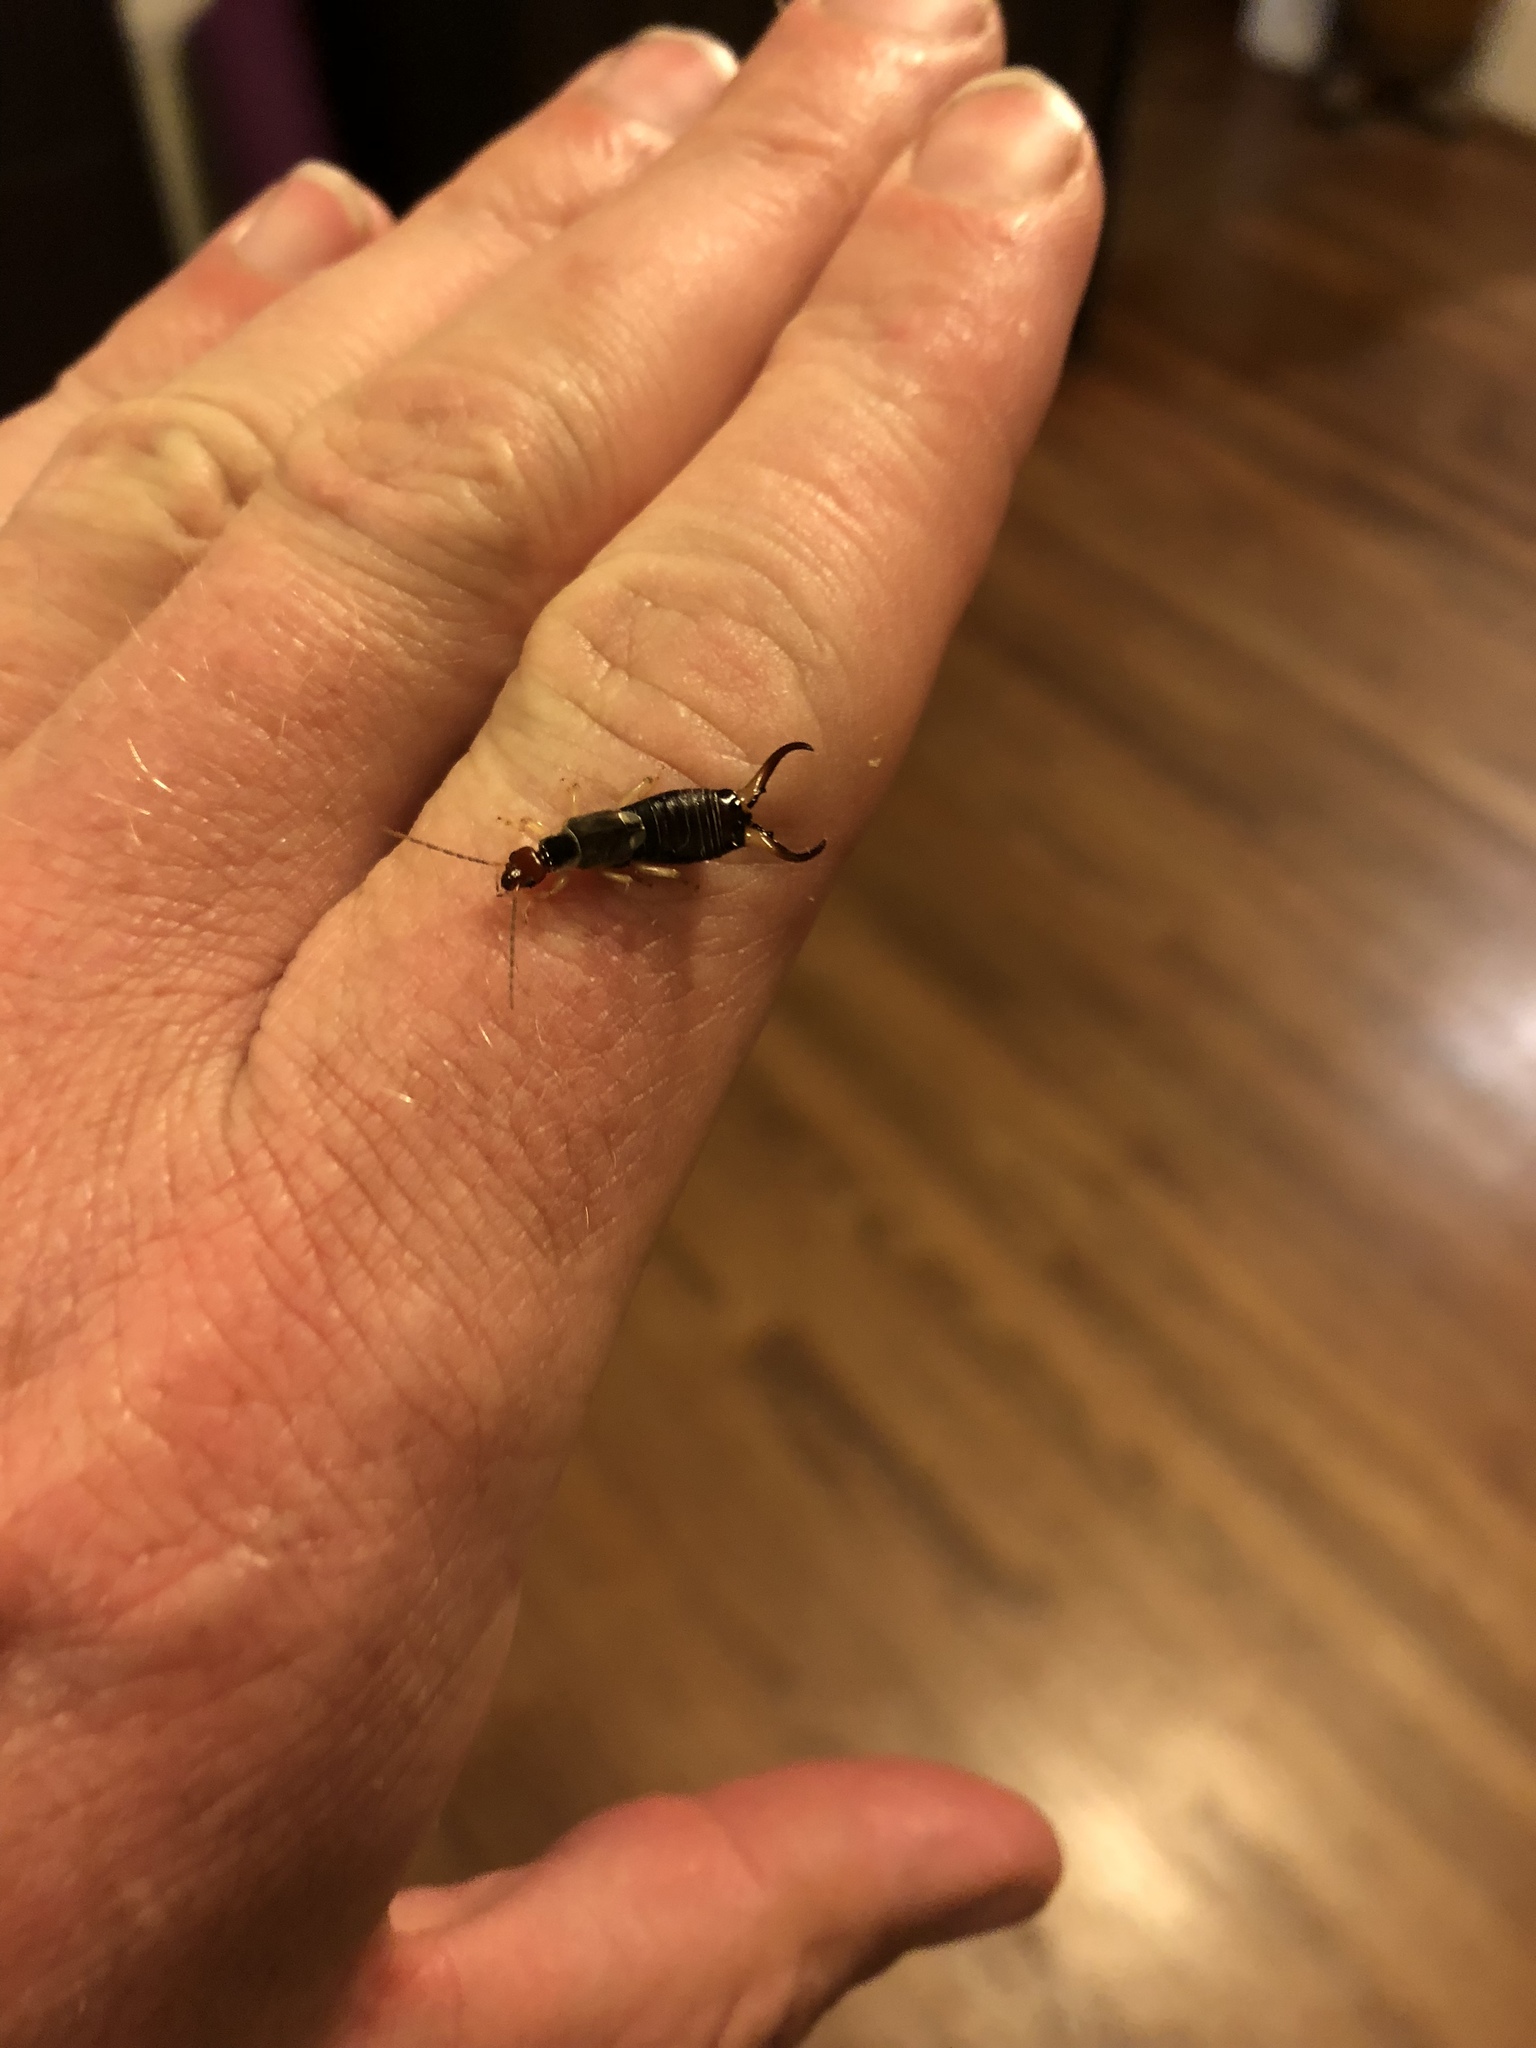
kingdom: Animalia
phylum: Arthropoda
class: Insecta
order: Dermaptera
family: Forficulidae
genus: Forficula
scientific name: Forficula
